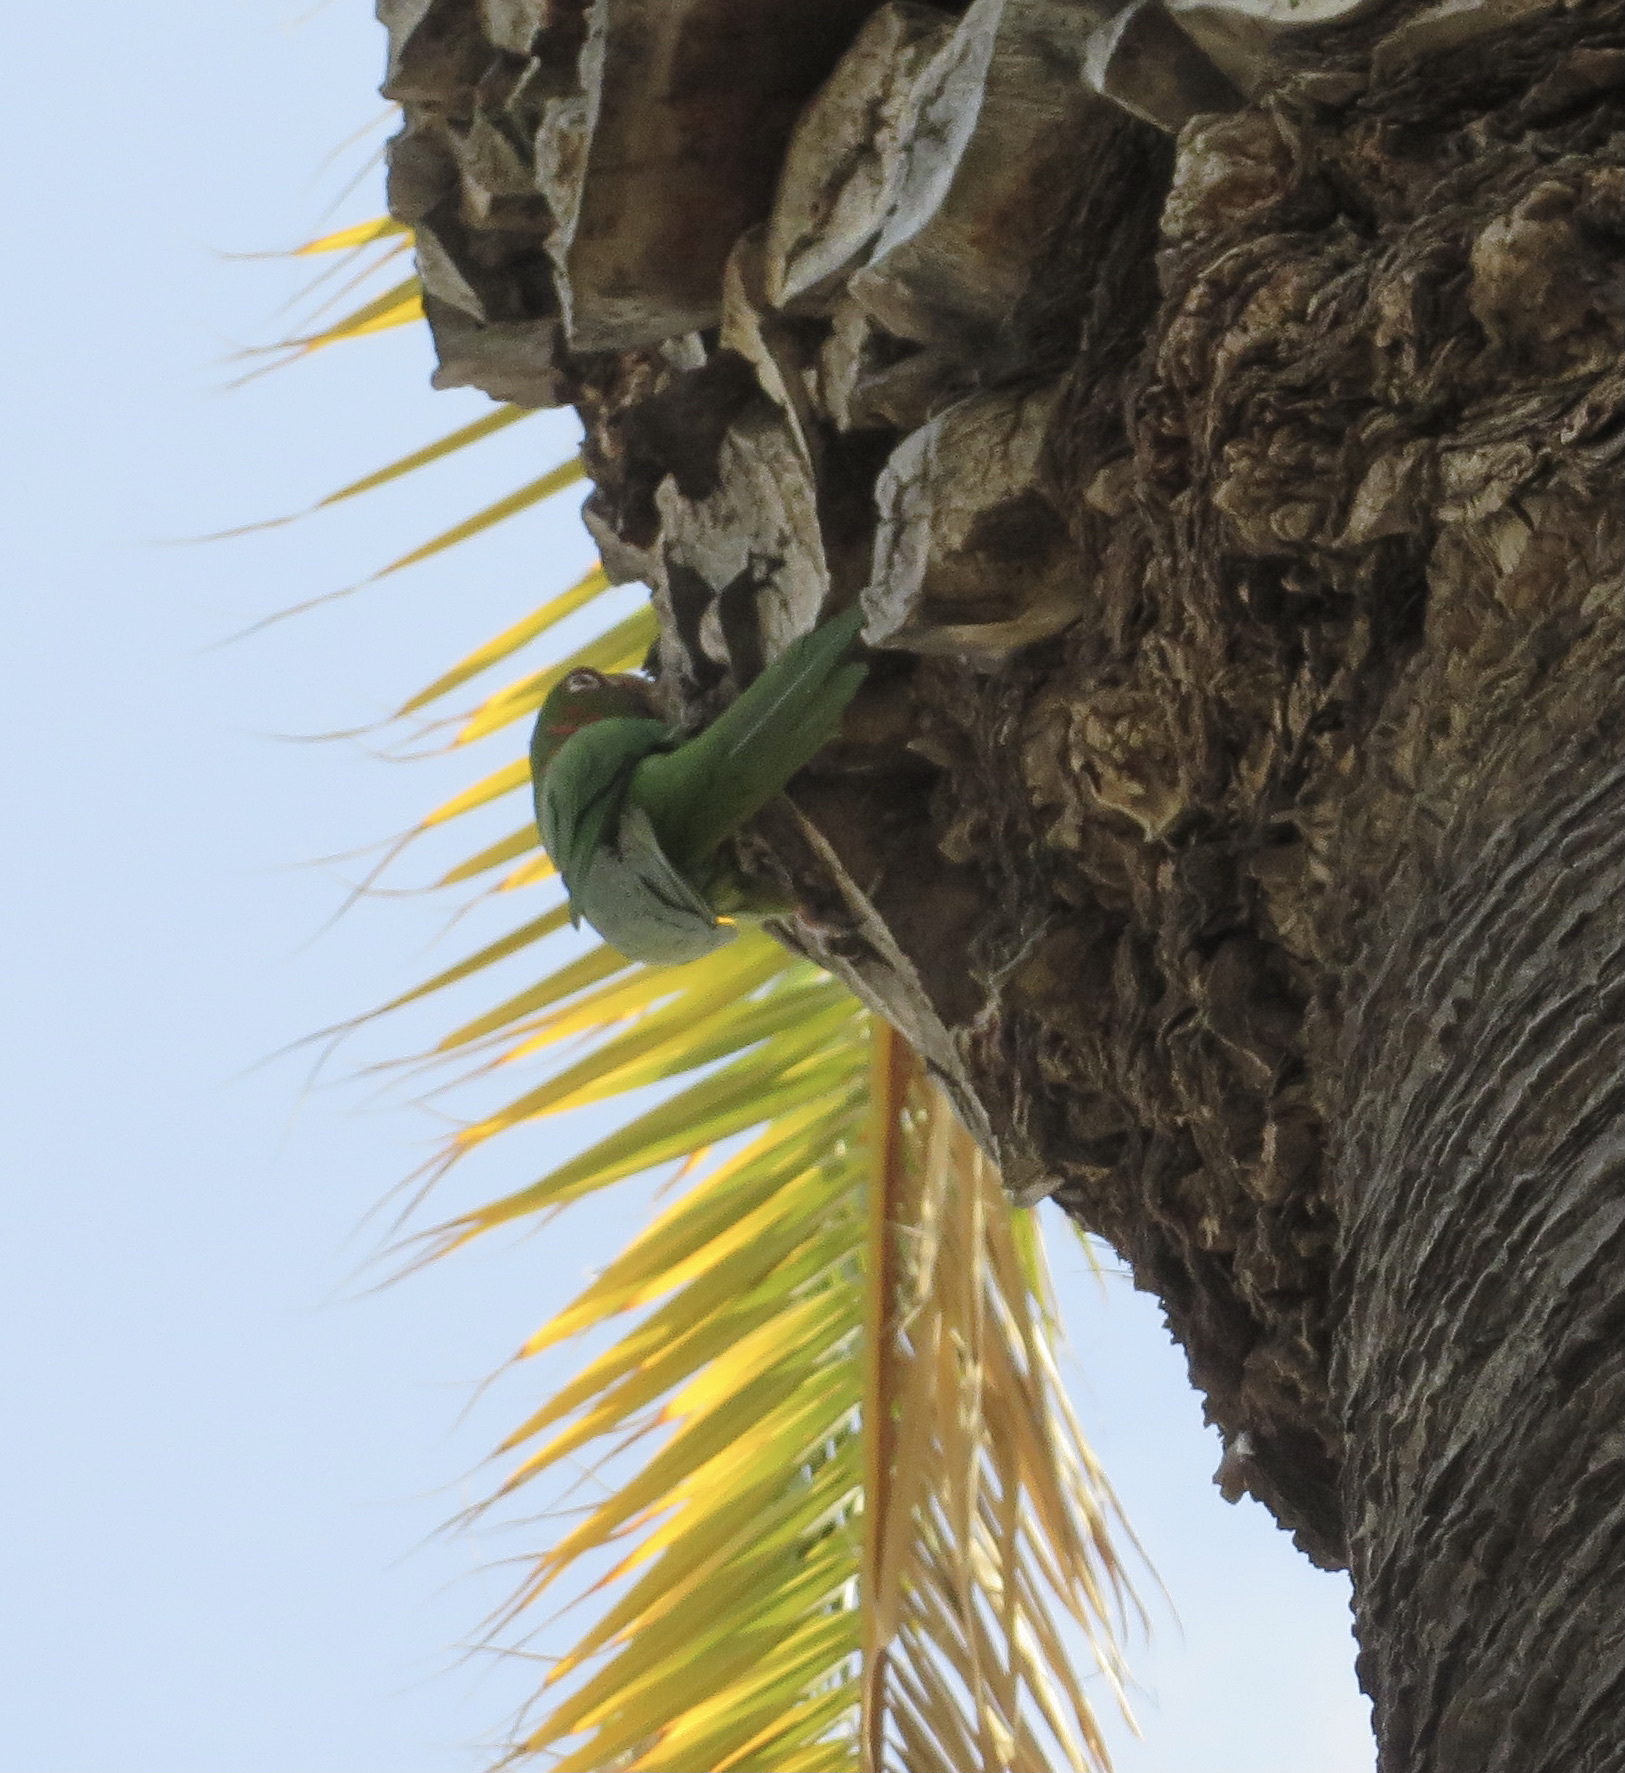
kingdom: Animalia
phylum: Chordata
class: Aves
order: Psittaciformes
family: Psittacidae
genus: Aratinga
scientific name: Aratinga mitrata
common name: Mitred parakeet
